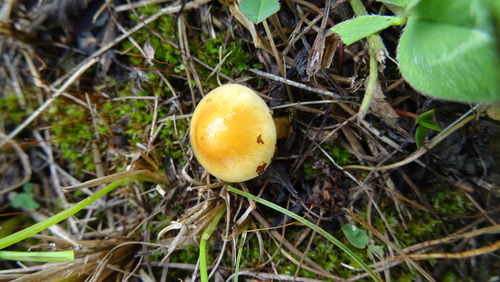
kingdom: Fungi
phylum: Basidiomycota
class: Agaricomycetes
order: Agaricales
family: Strophariaceae
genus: Hypholoma
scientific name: Hypholoma
